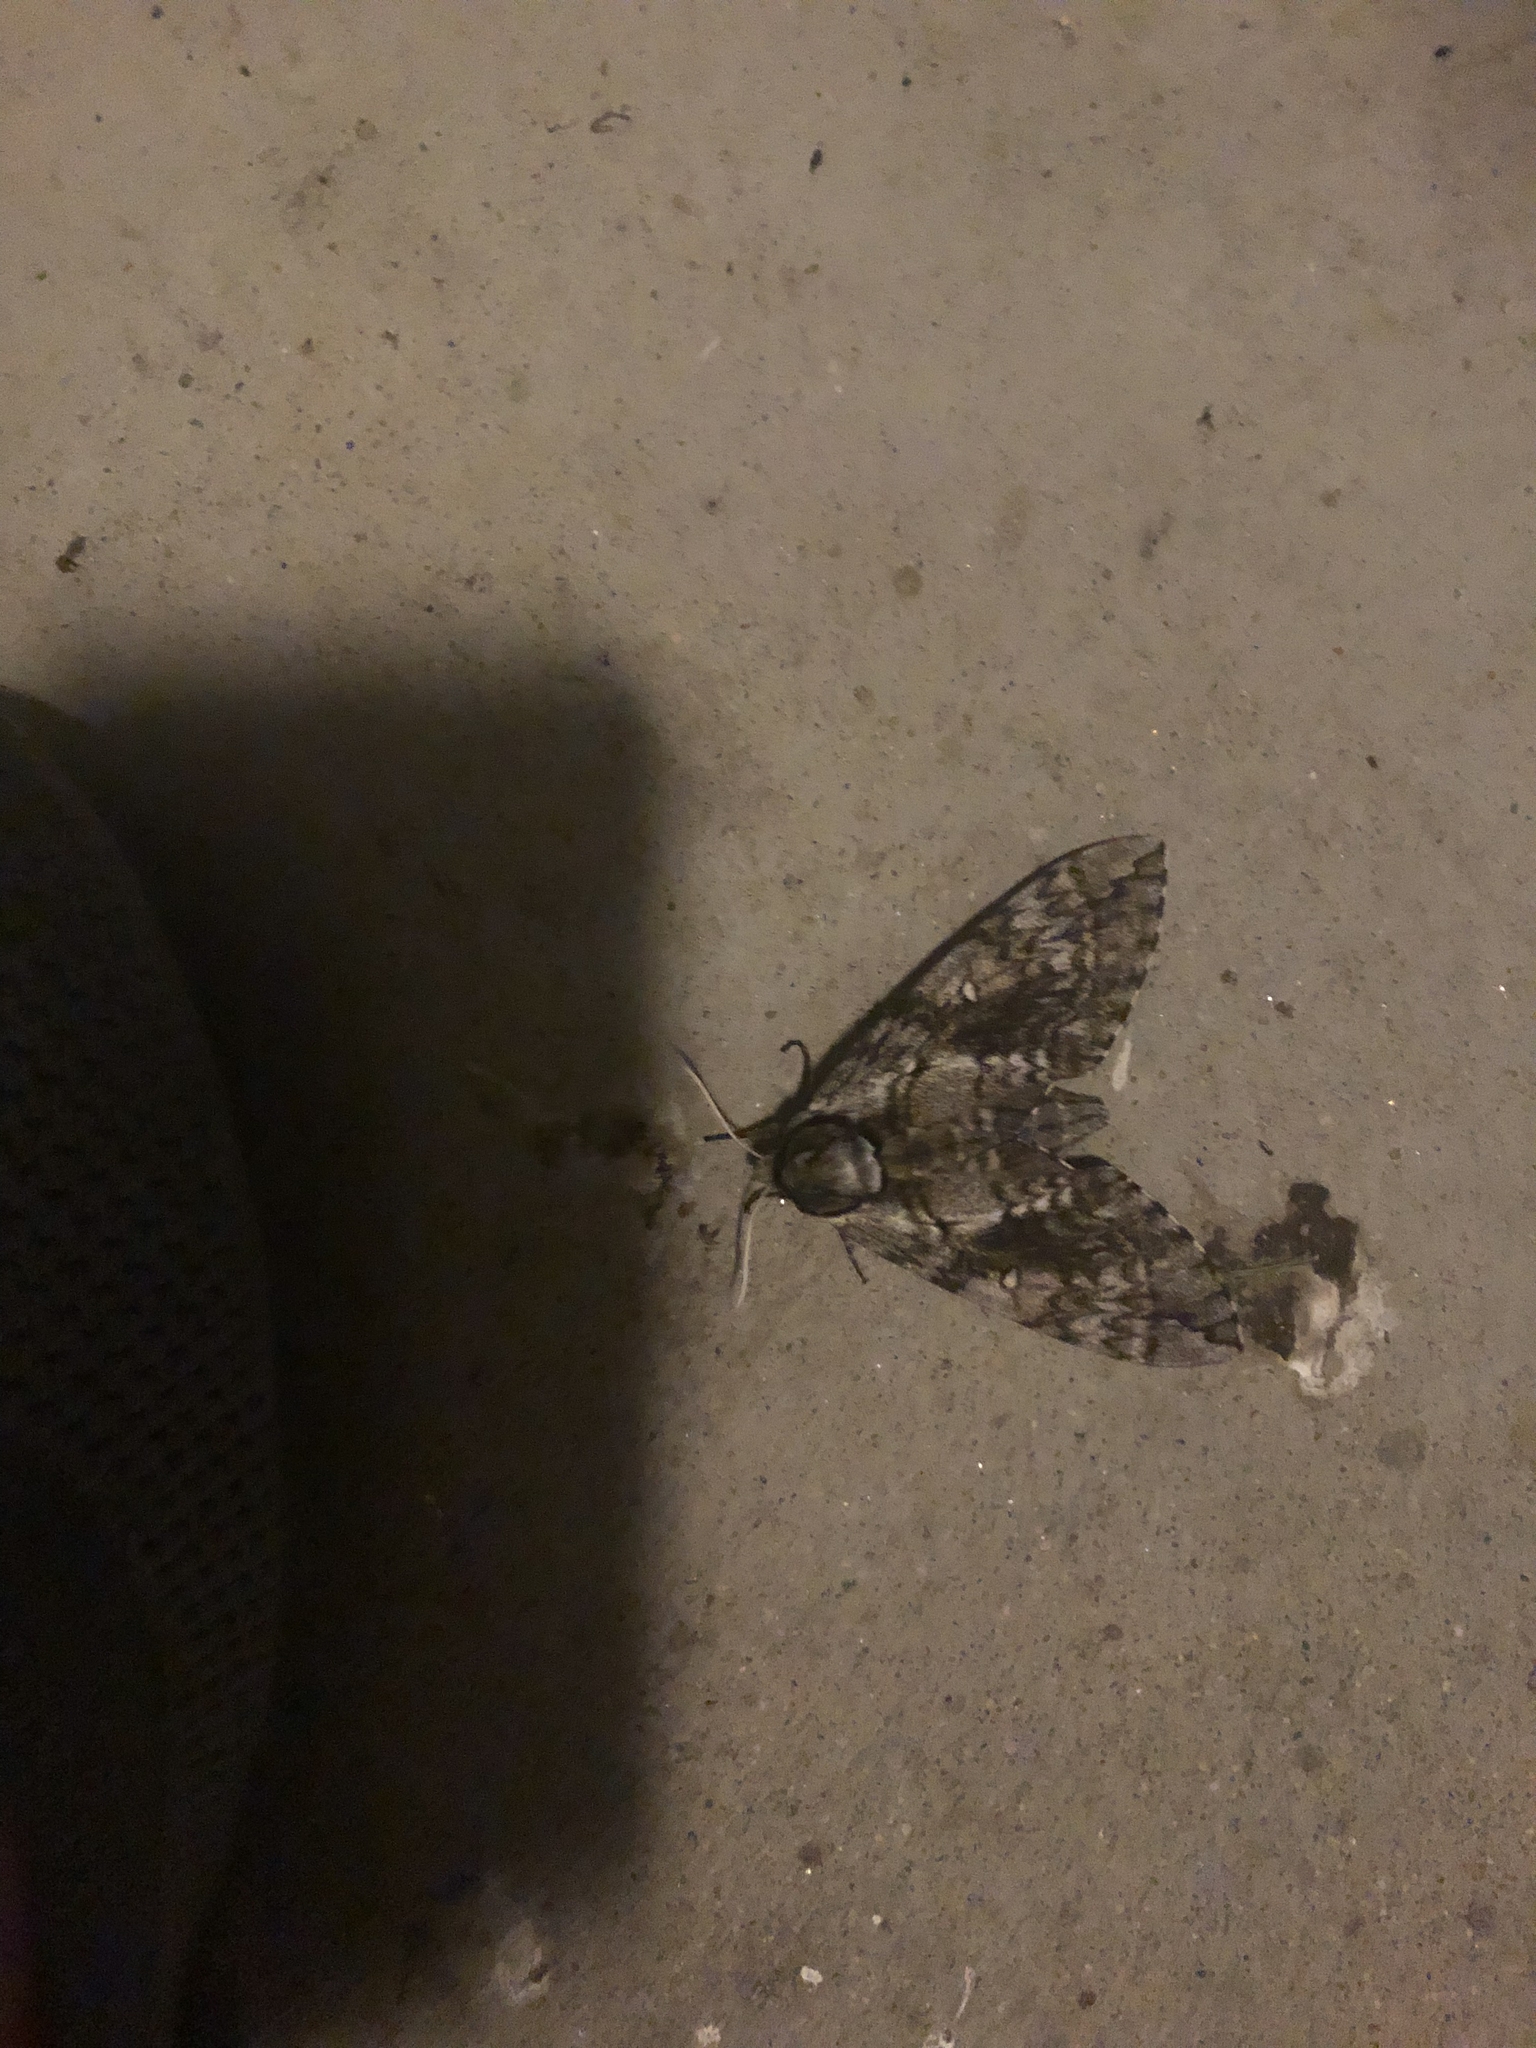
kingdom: Animalia
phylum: Arthropoda
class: Insecta
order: Lepidoptera
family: Sphingidae
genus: Ceratomia
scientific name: Ceratomia undulosa
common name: Waved sphinx
